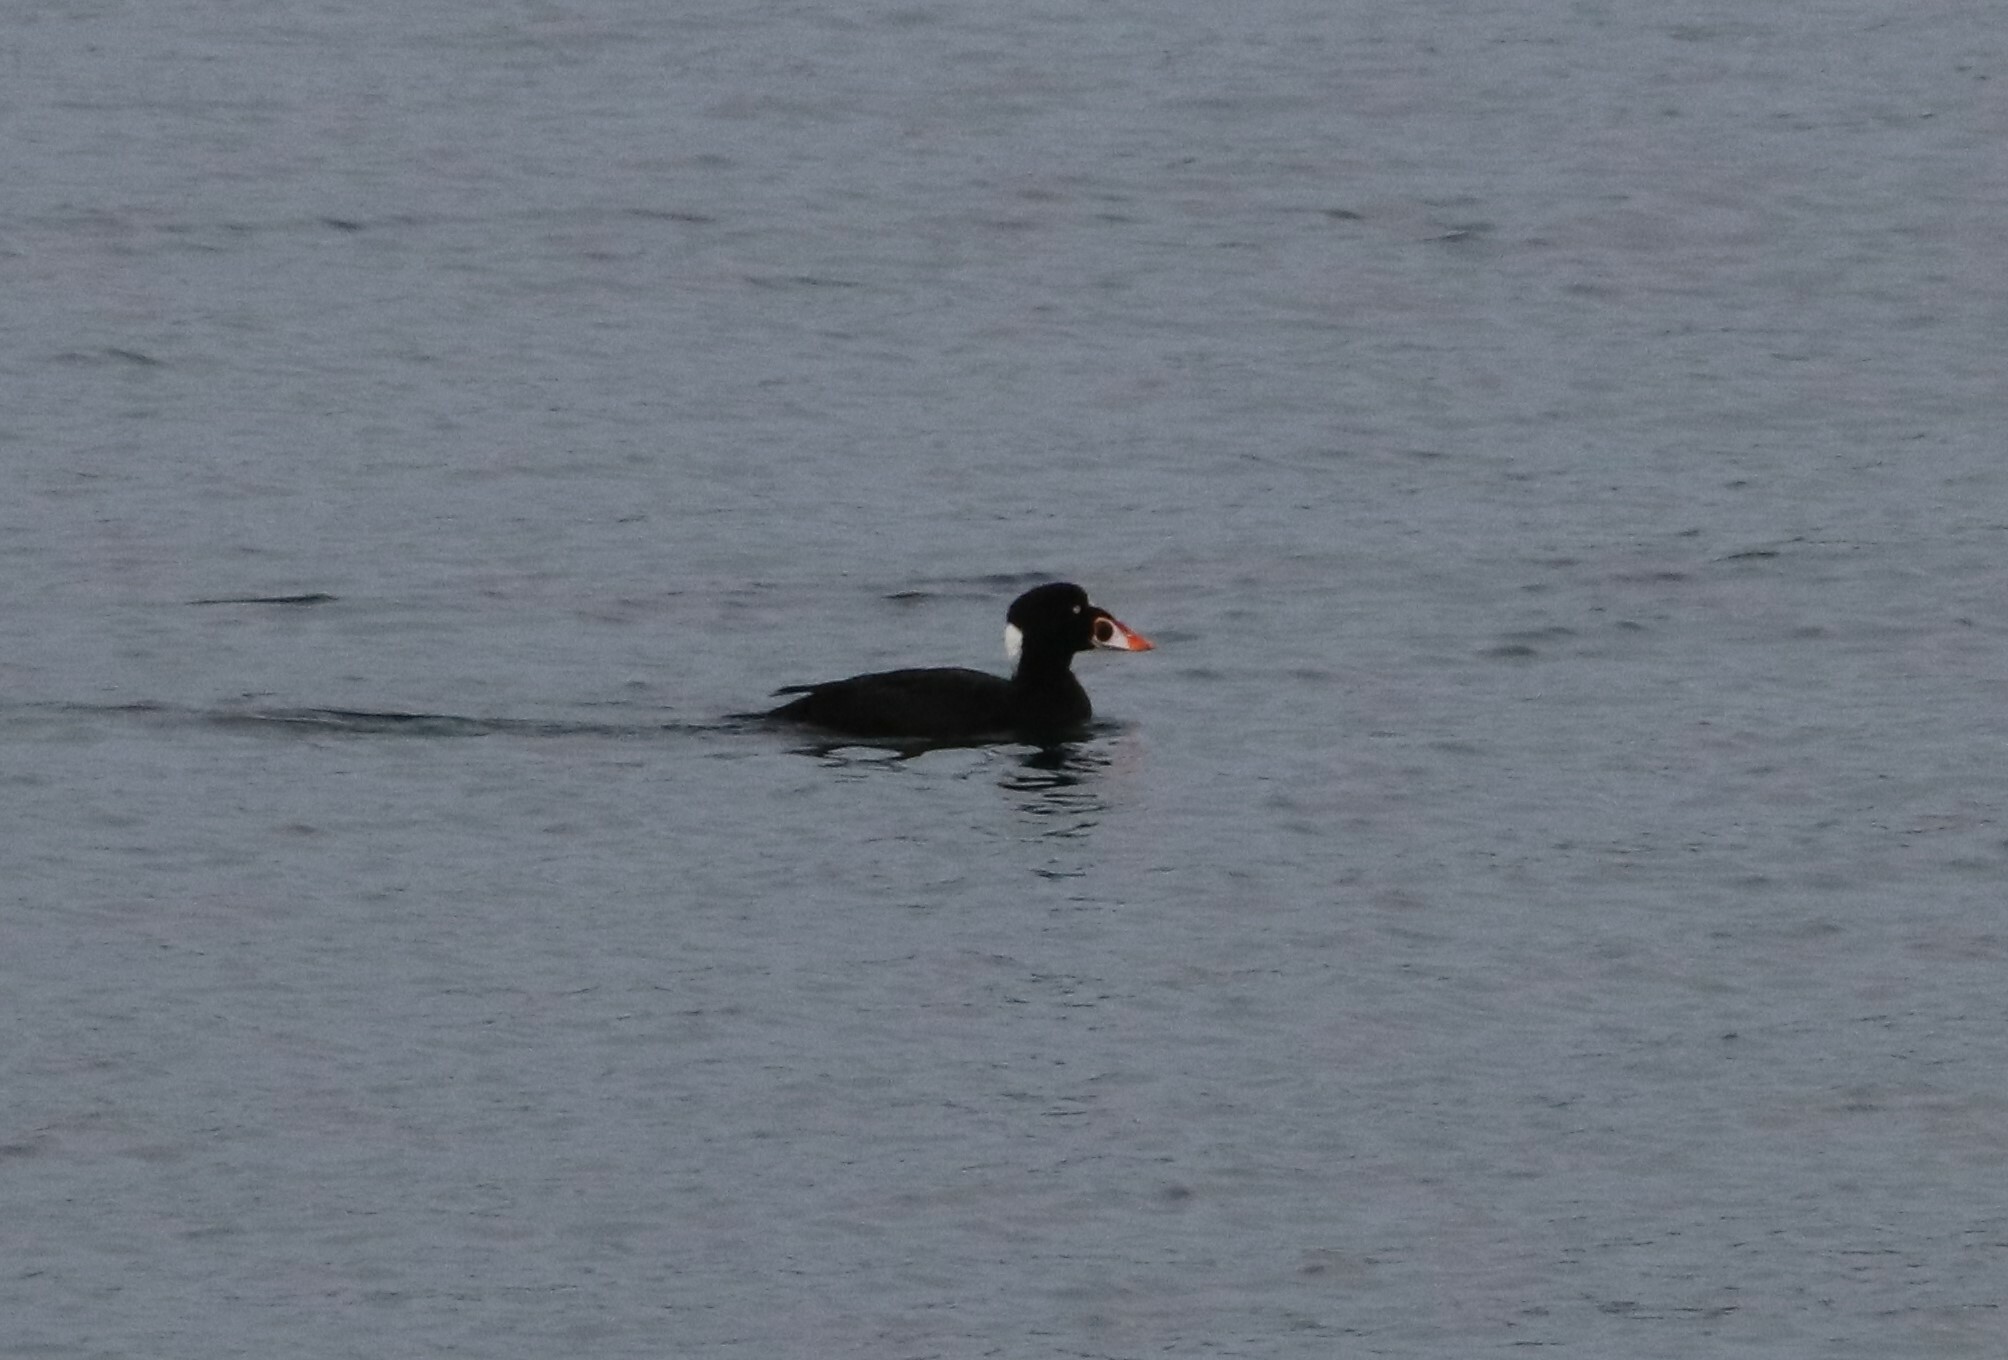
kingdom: Animalia
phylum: Chordata
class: Aves
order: Anseriformes
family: Anatidae
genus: Melanitta
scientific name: Melanitta perspicillata
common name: Surf scoter
